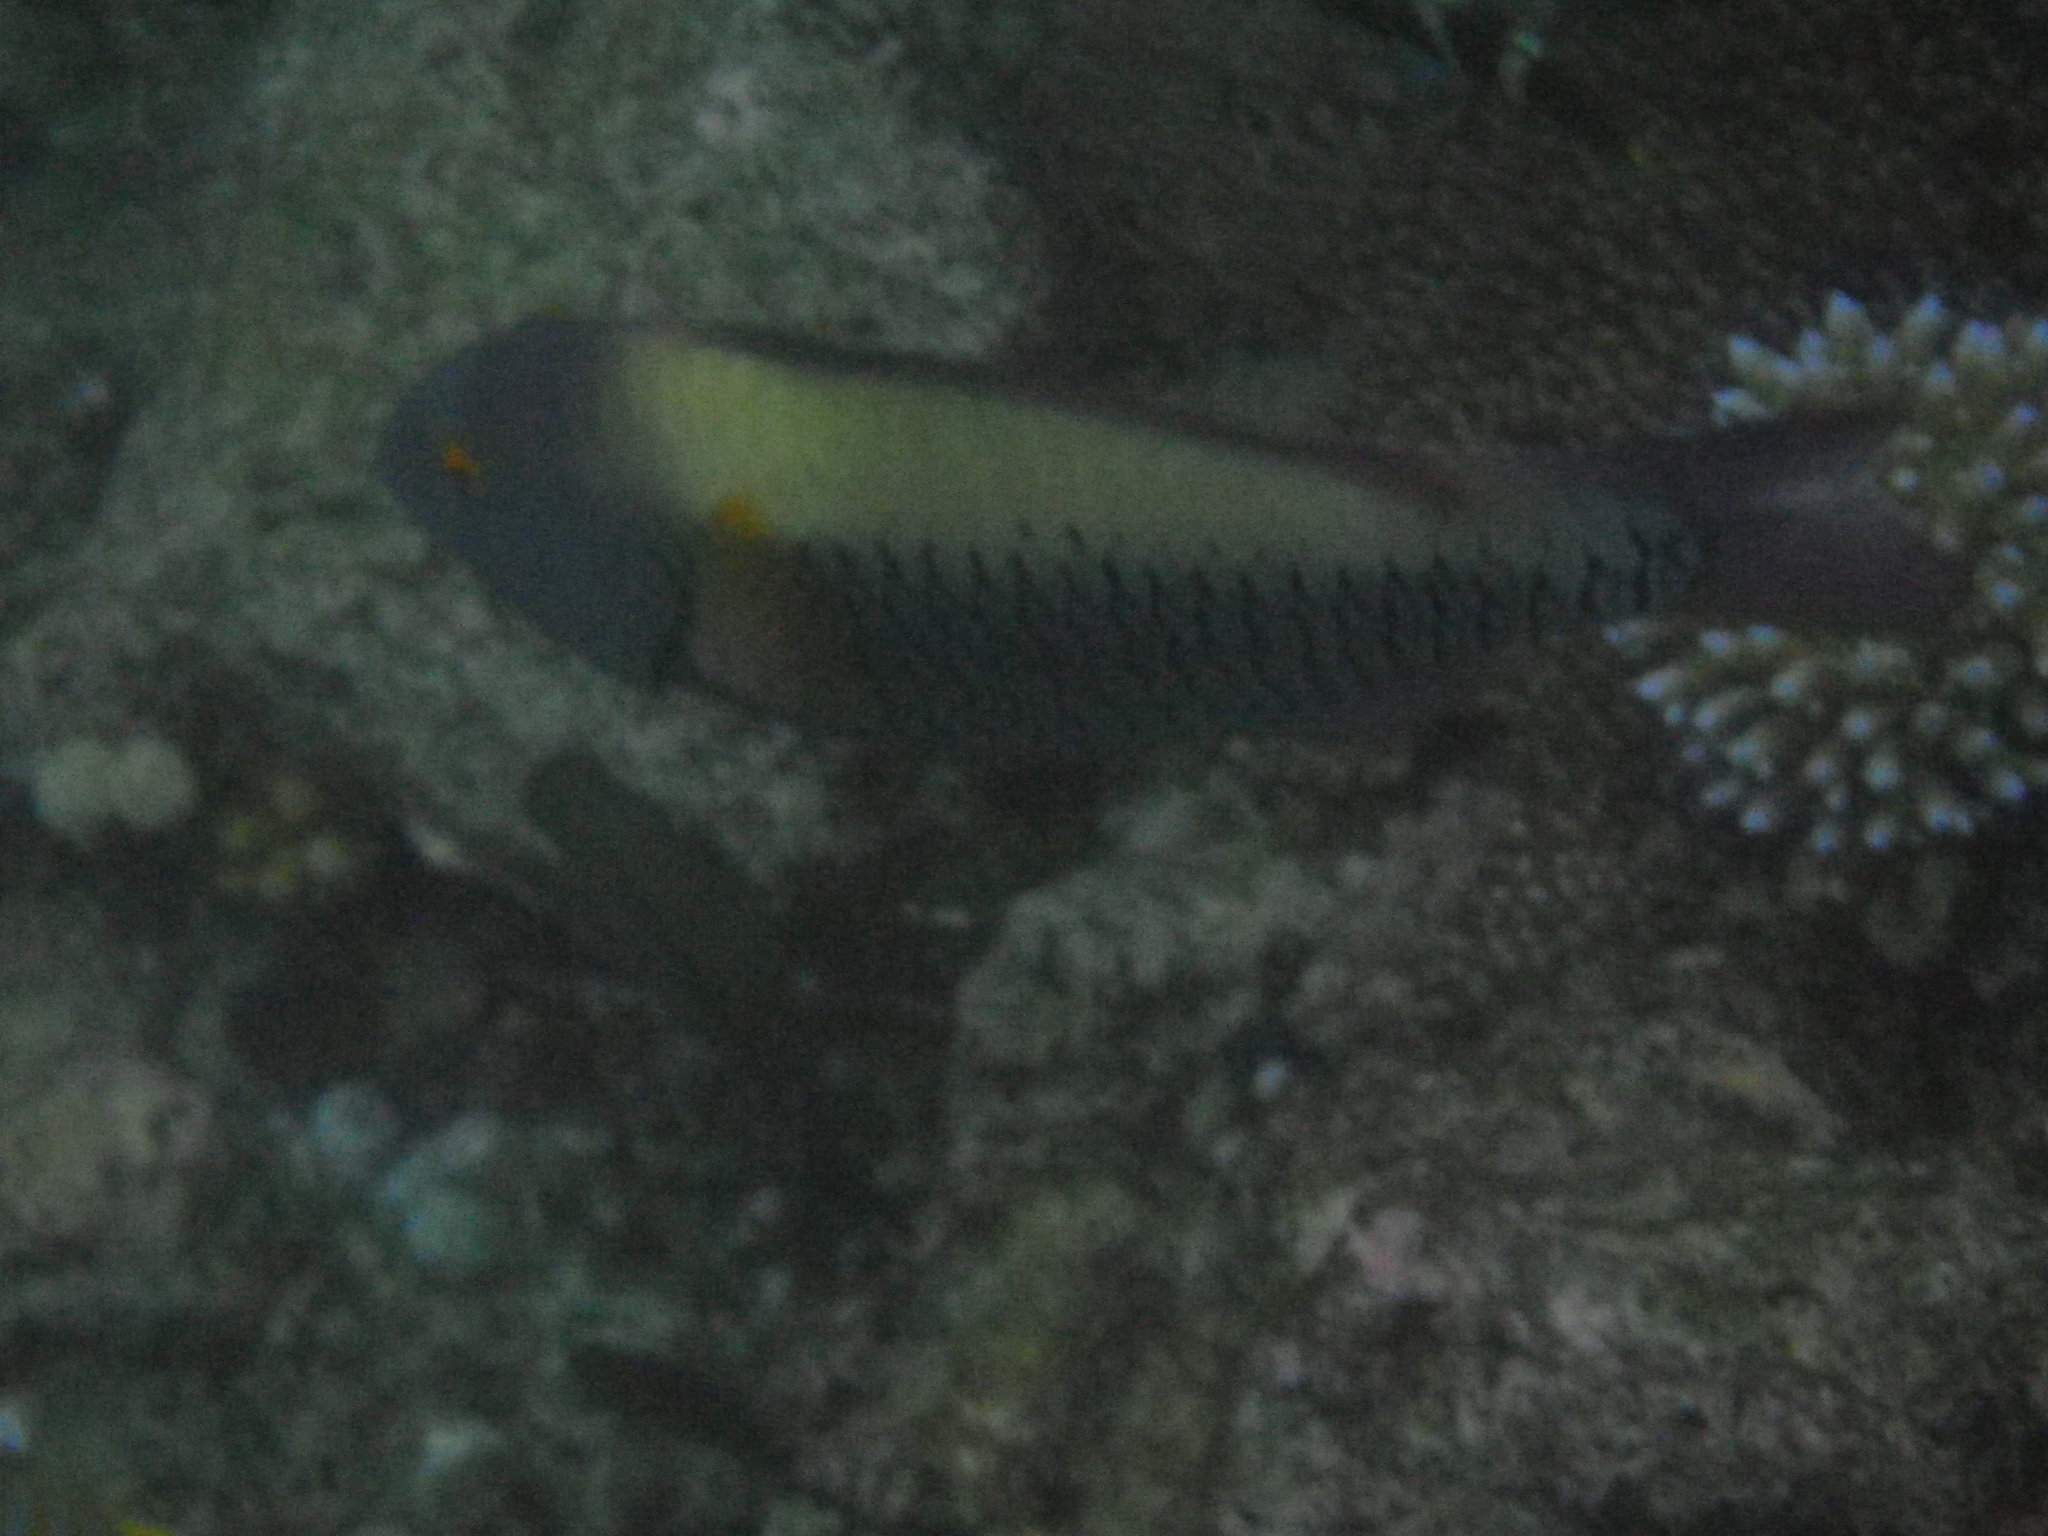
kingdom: Animalia
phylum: Chordata
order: Perciformes
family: Scaridae
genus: Cetoscarus
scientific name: Cetoscarus ocellatus
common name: Bicolor parrotfish
